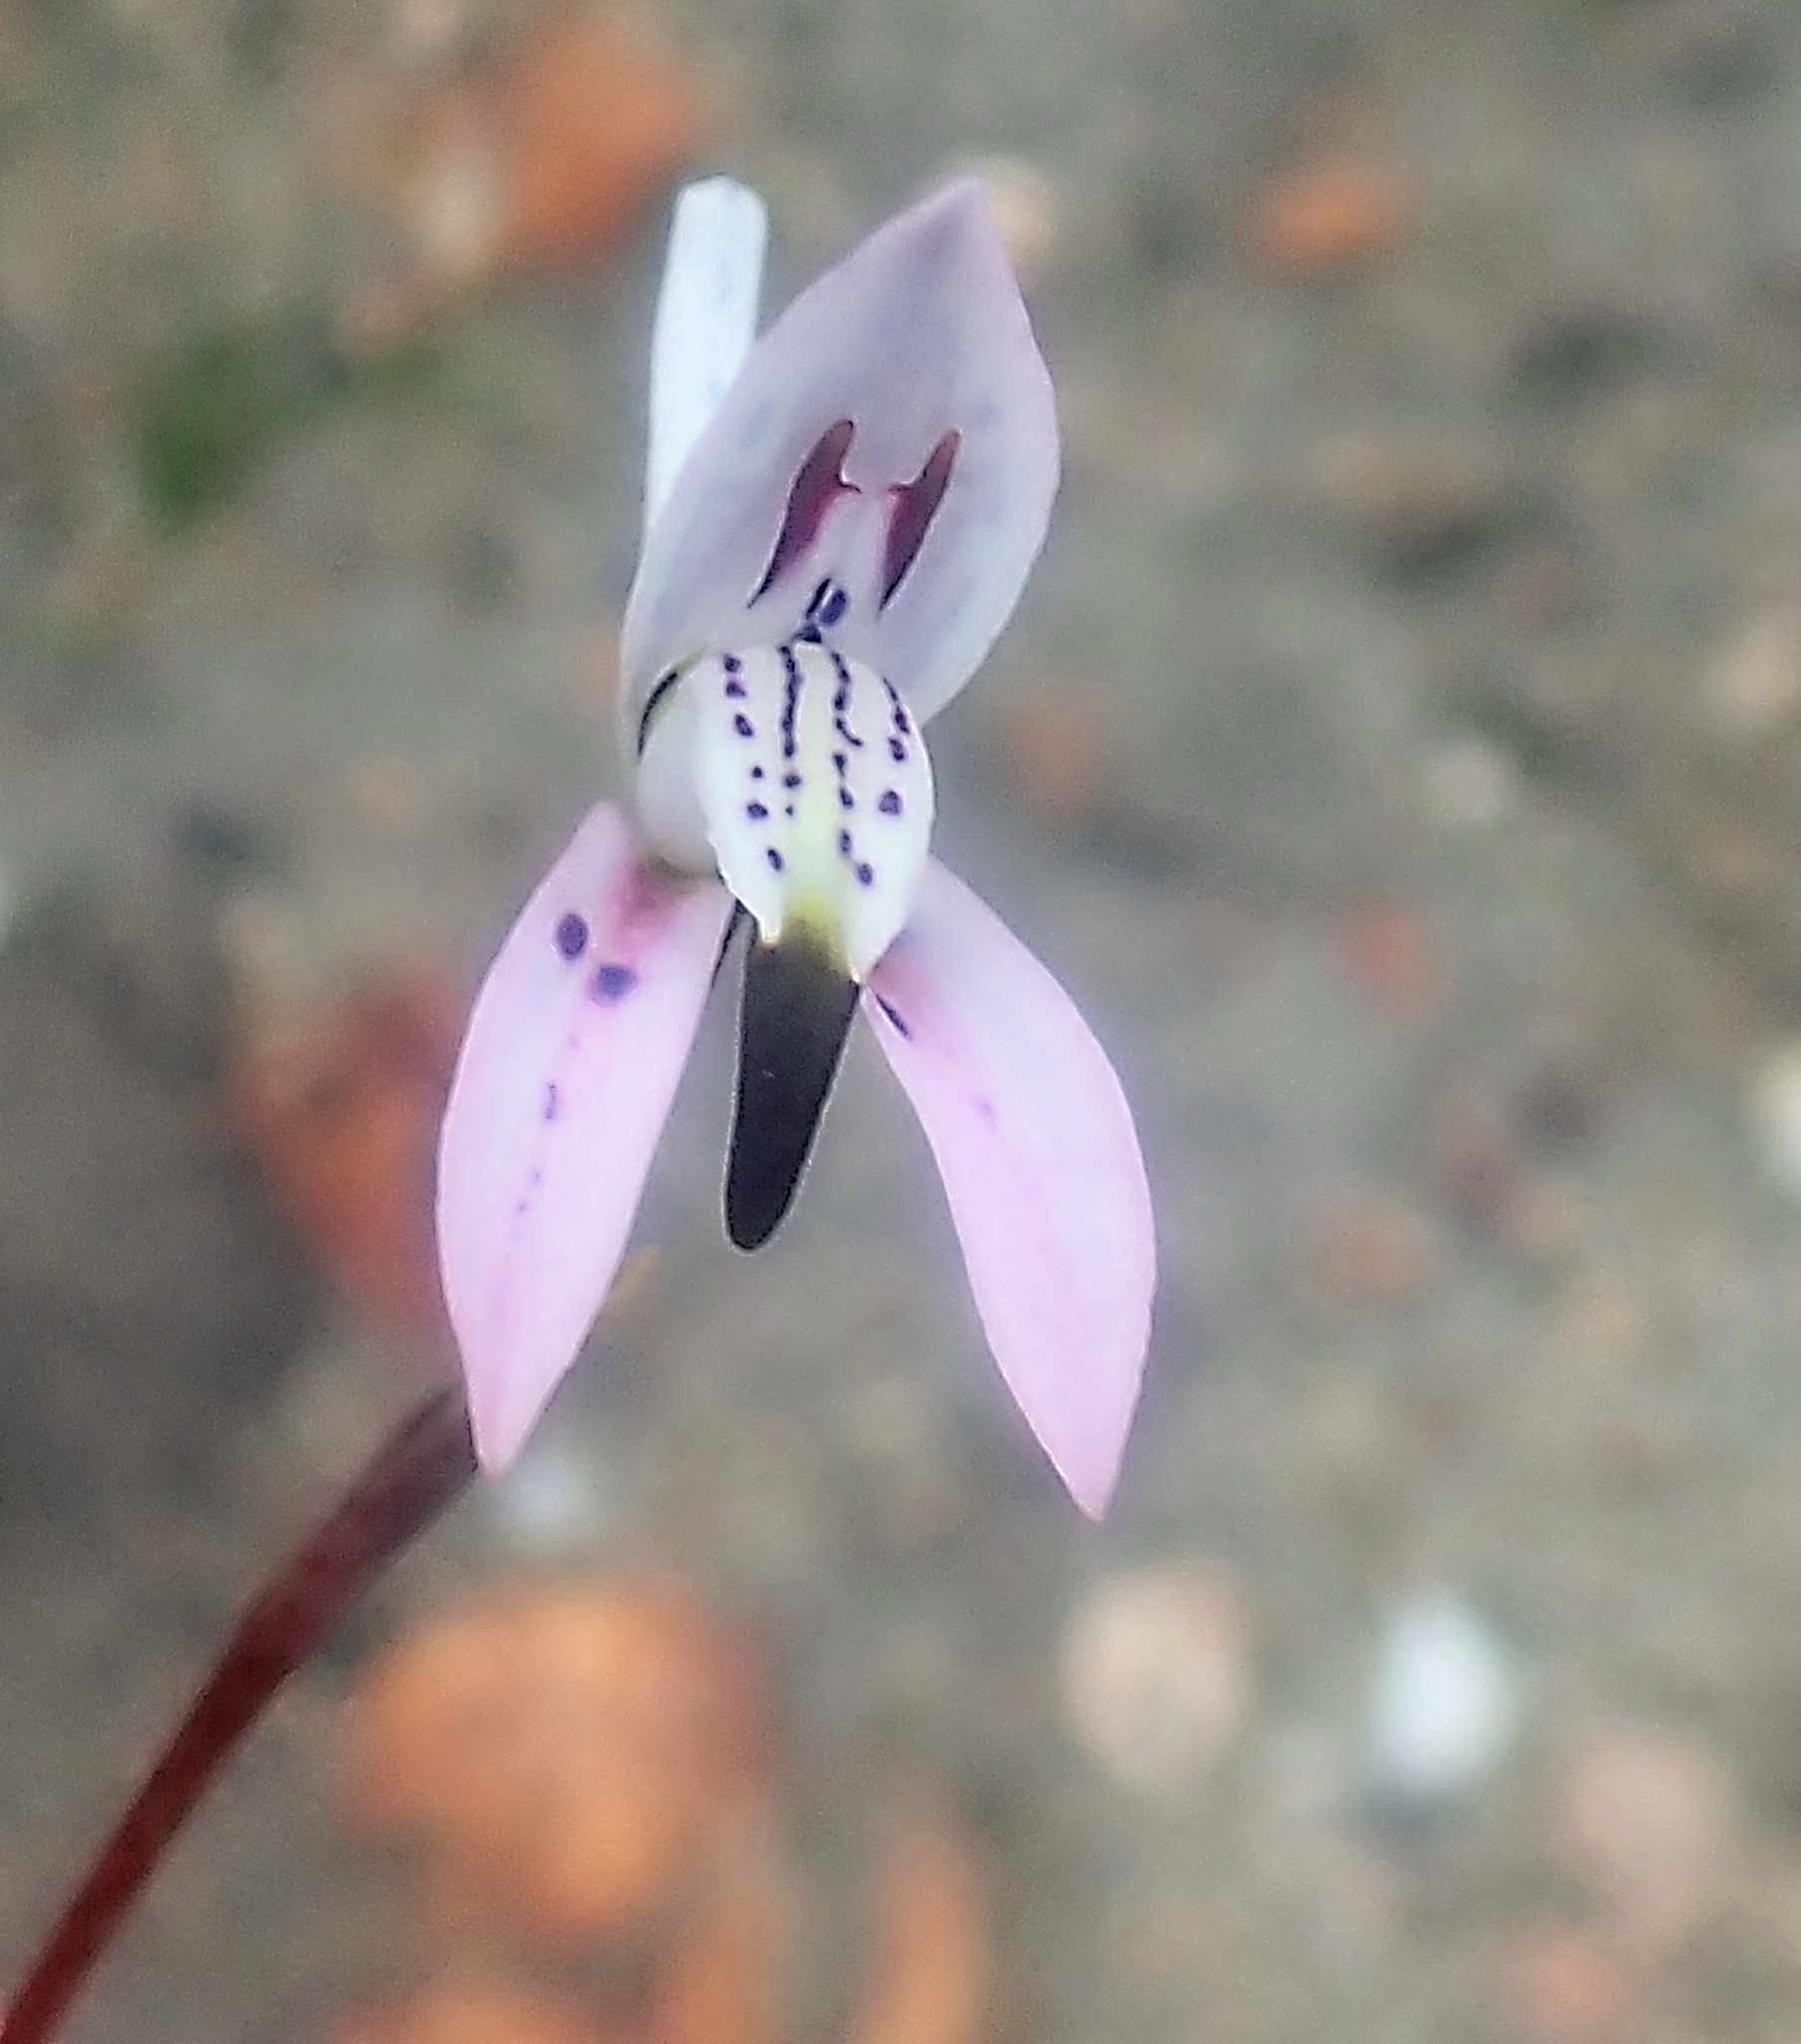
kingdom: Plantae
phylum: Tracheophyta
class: Liliopsida
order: Asparagales
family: Orchidaceae
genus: Disa
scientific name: Disa bifida
